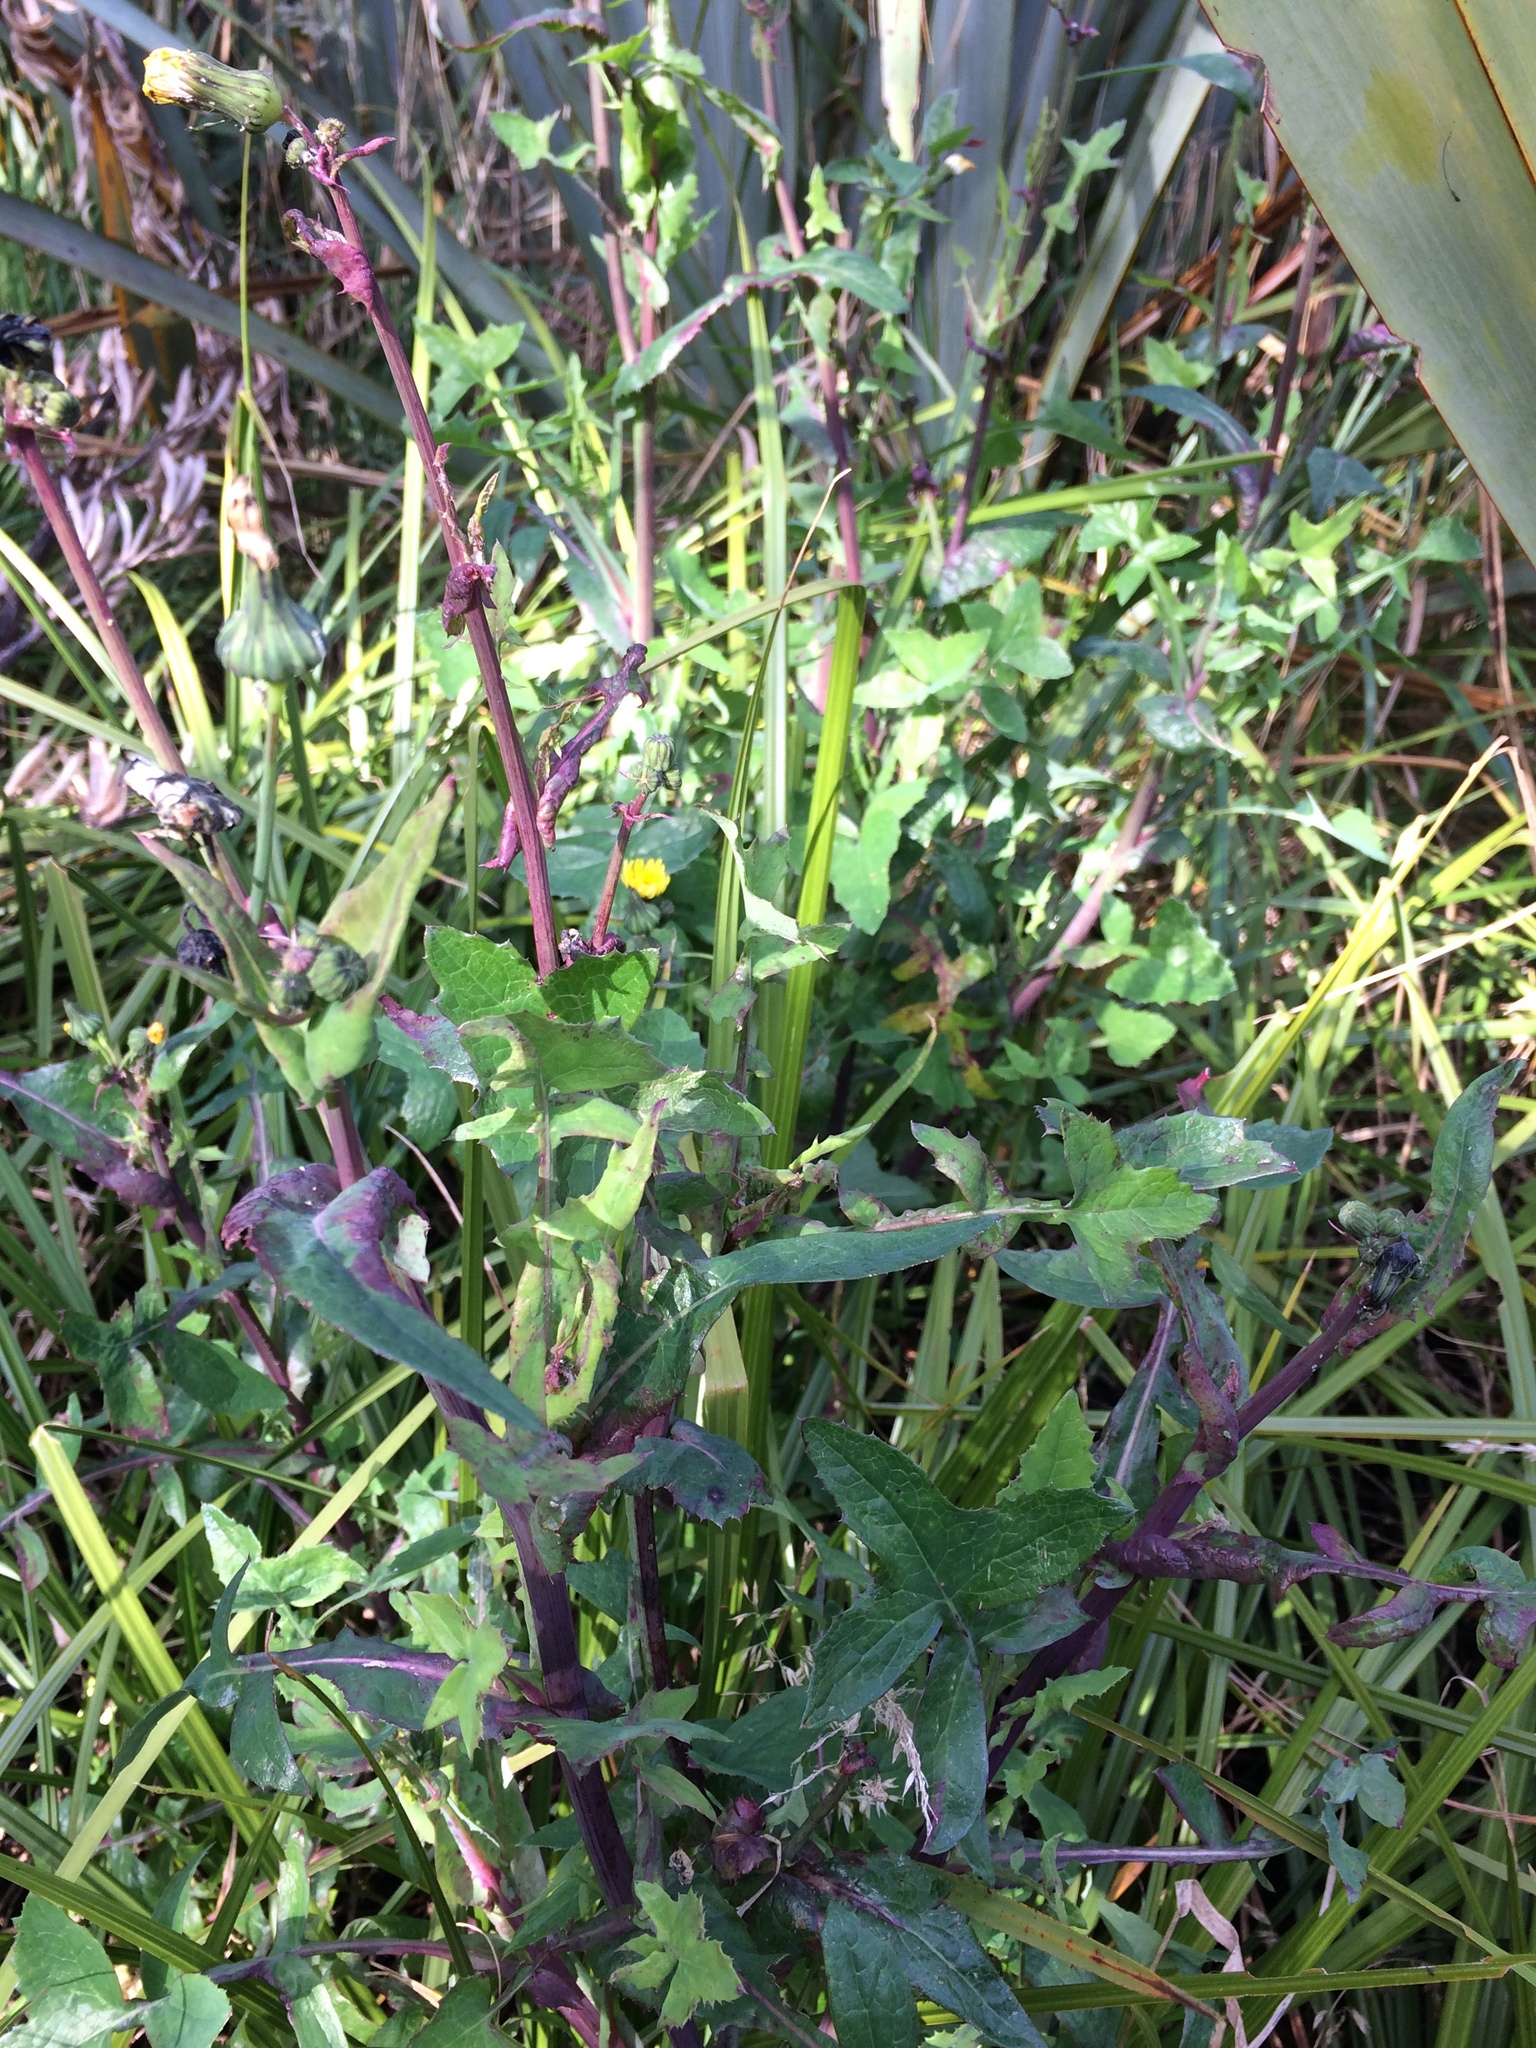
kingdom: Plantae
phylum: Tracheophyta
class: Magnoliopsida
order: Asterales
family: Asteraceae
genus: Sonchus
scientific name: Sonchus oleraceus
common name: Common sowthistle
